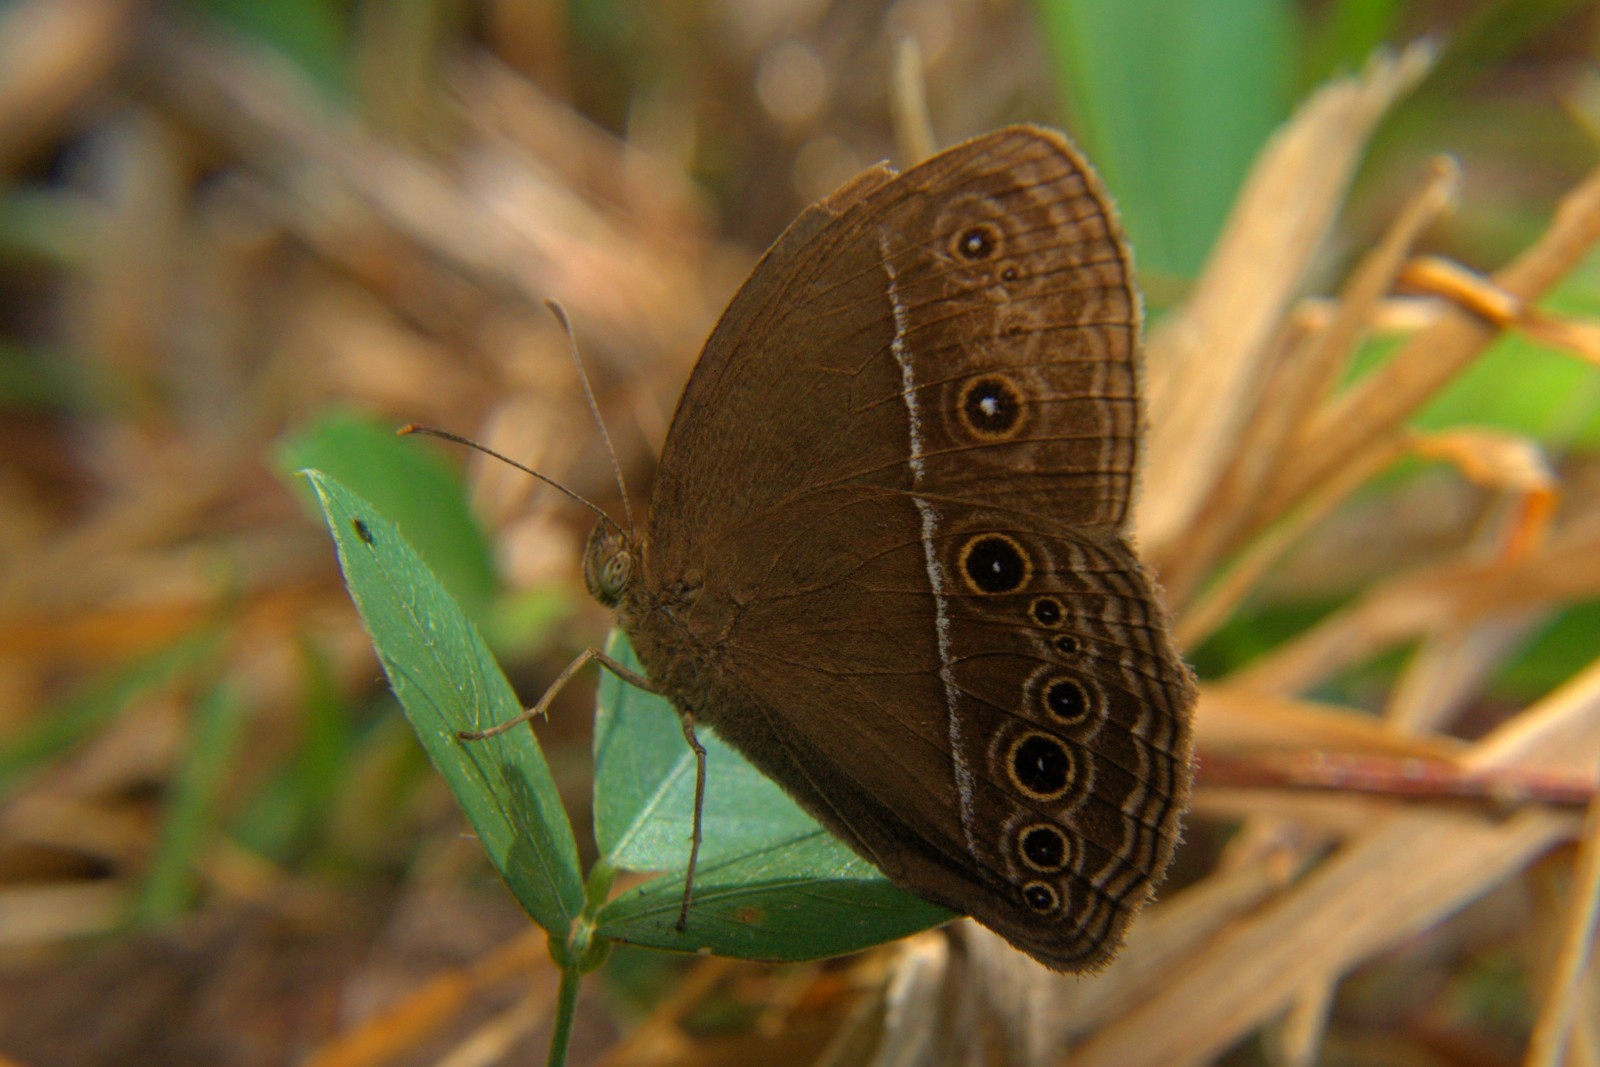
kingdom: Animalia
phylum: Arthropoda
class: Insecta
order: Lepidoptera
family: Nymphalidae
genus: Mycalesis
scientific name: Mycalesis perseus
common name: Dingy bushbrown
